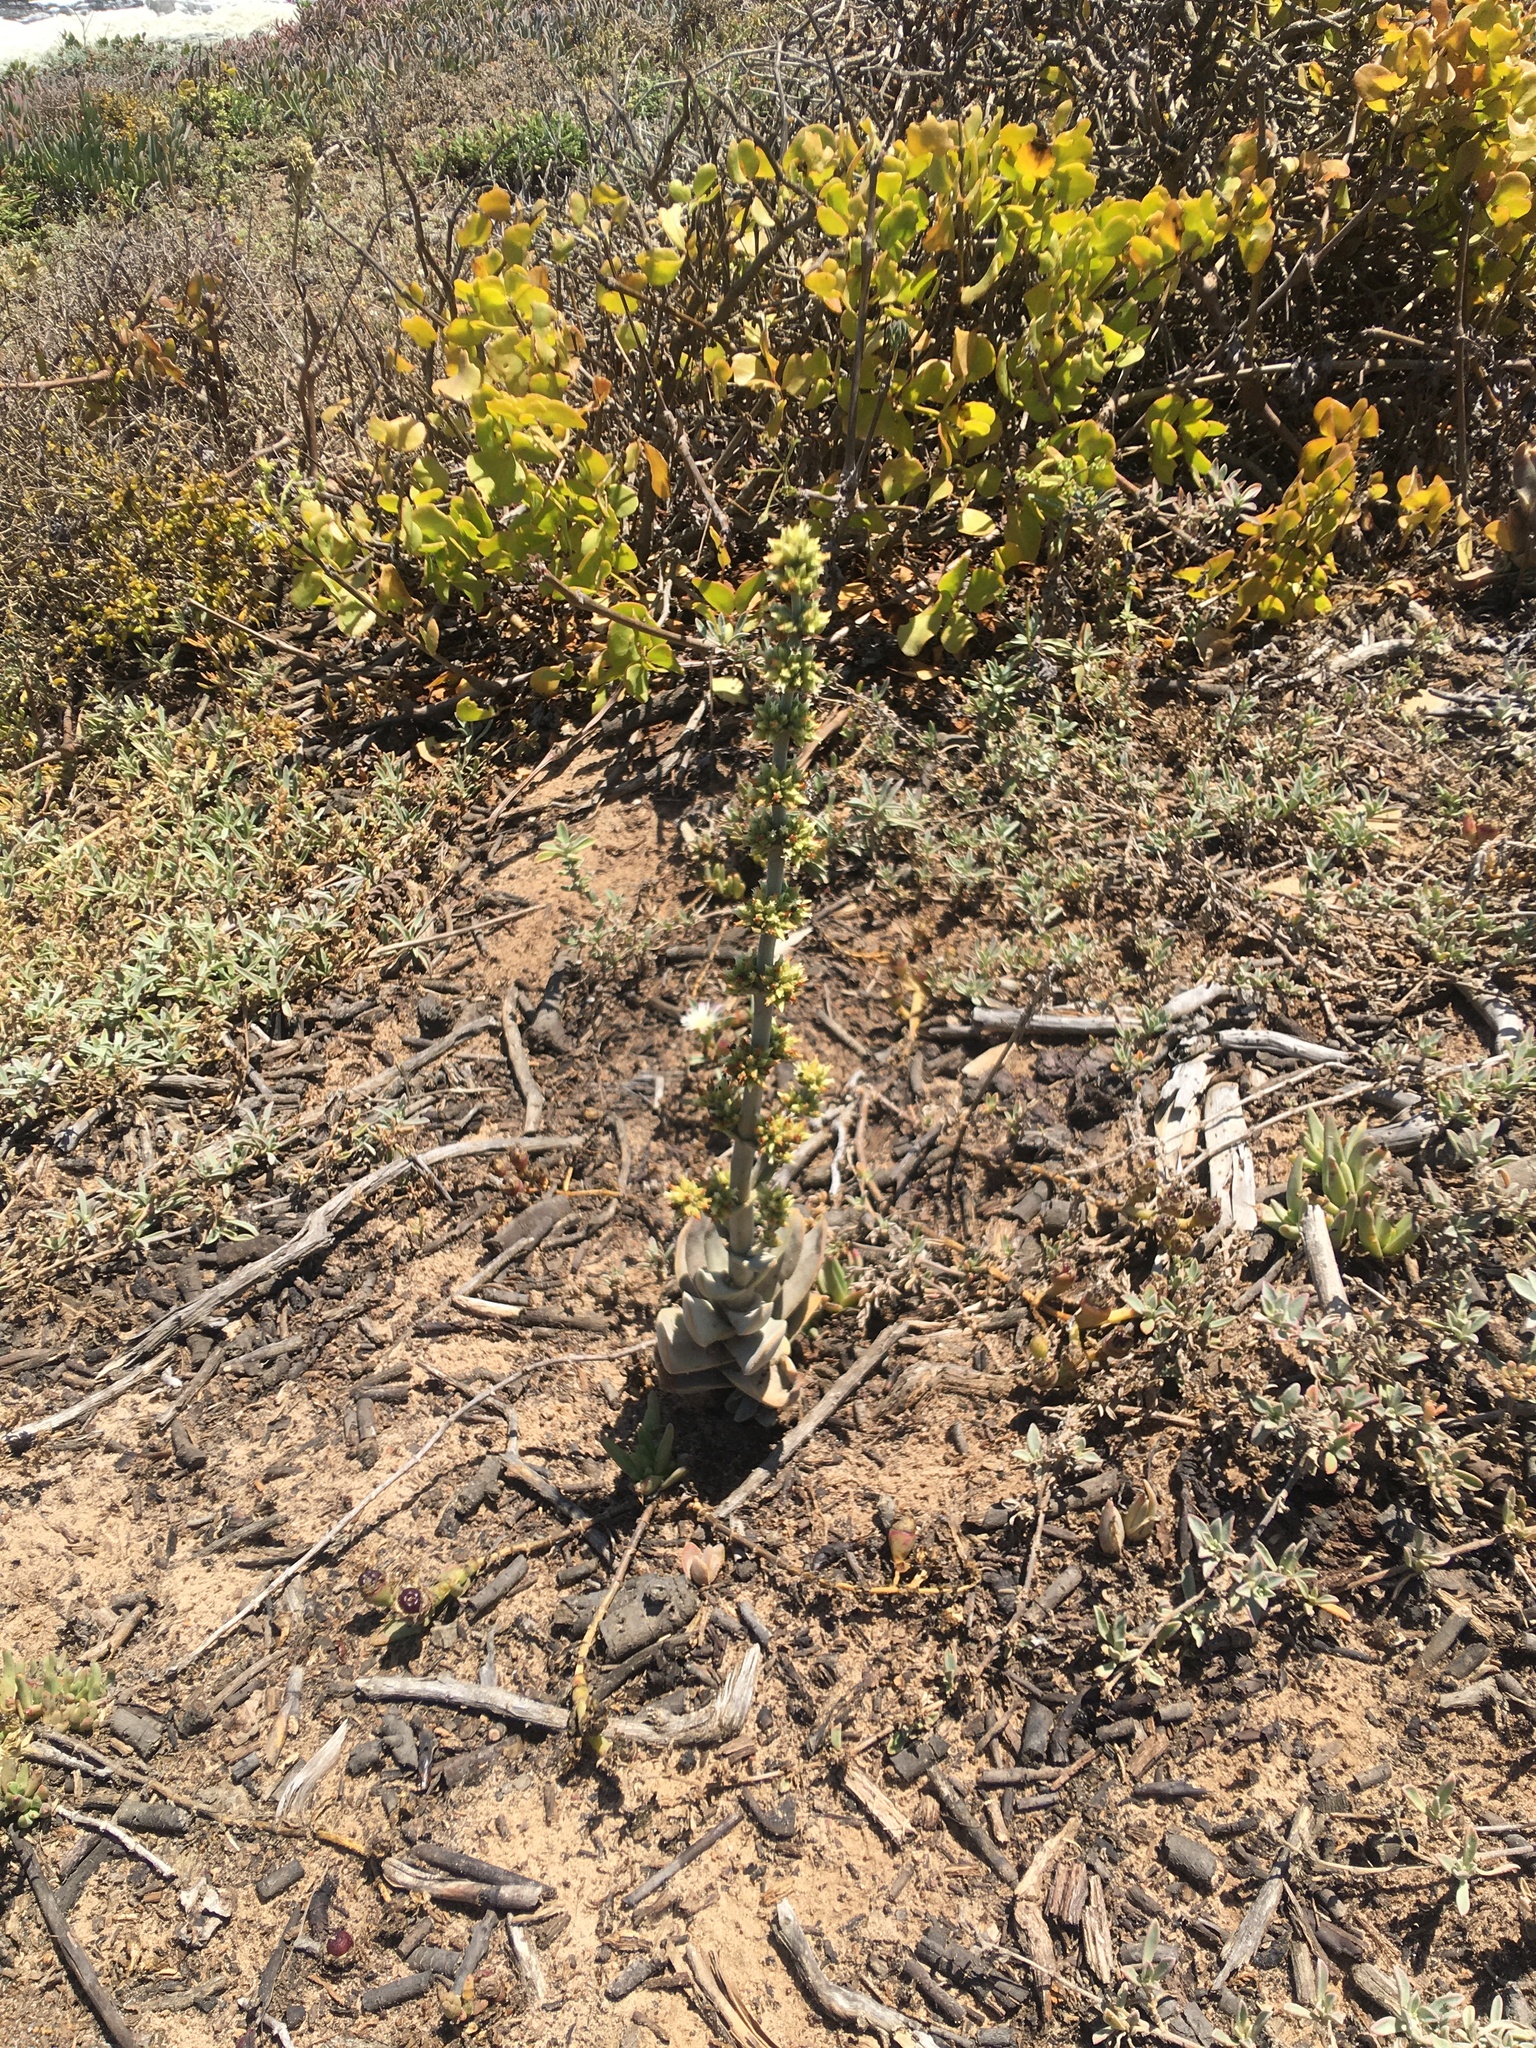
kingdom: Plantae
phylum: Tracheophyta
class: Magnoliopsida
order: Saxifragales
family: Crassulaceae
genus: Crassula
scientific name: Crassula tomentosa
